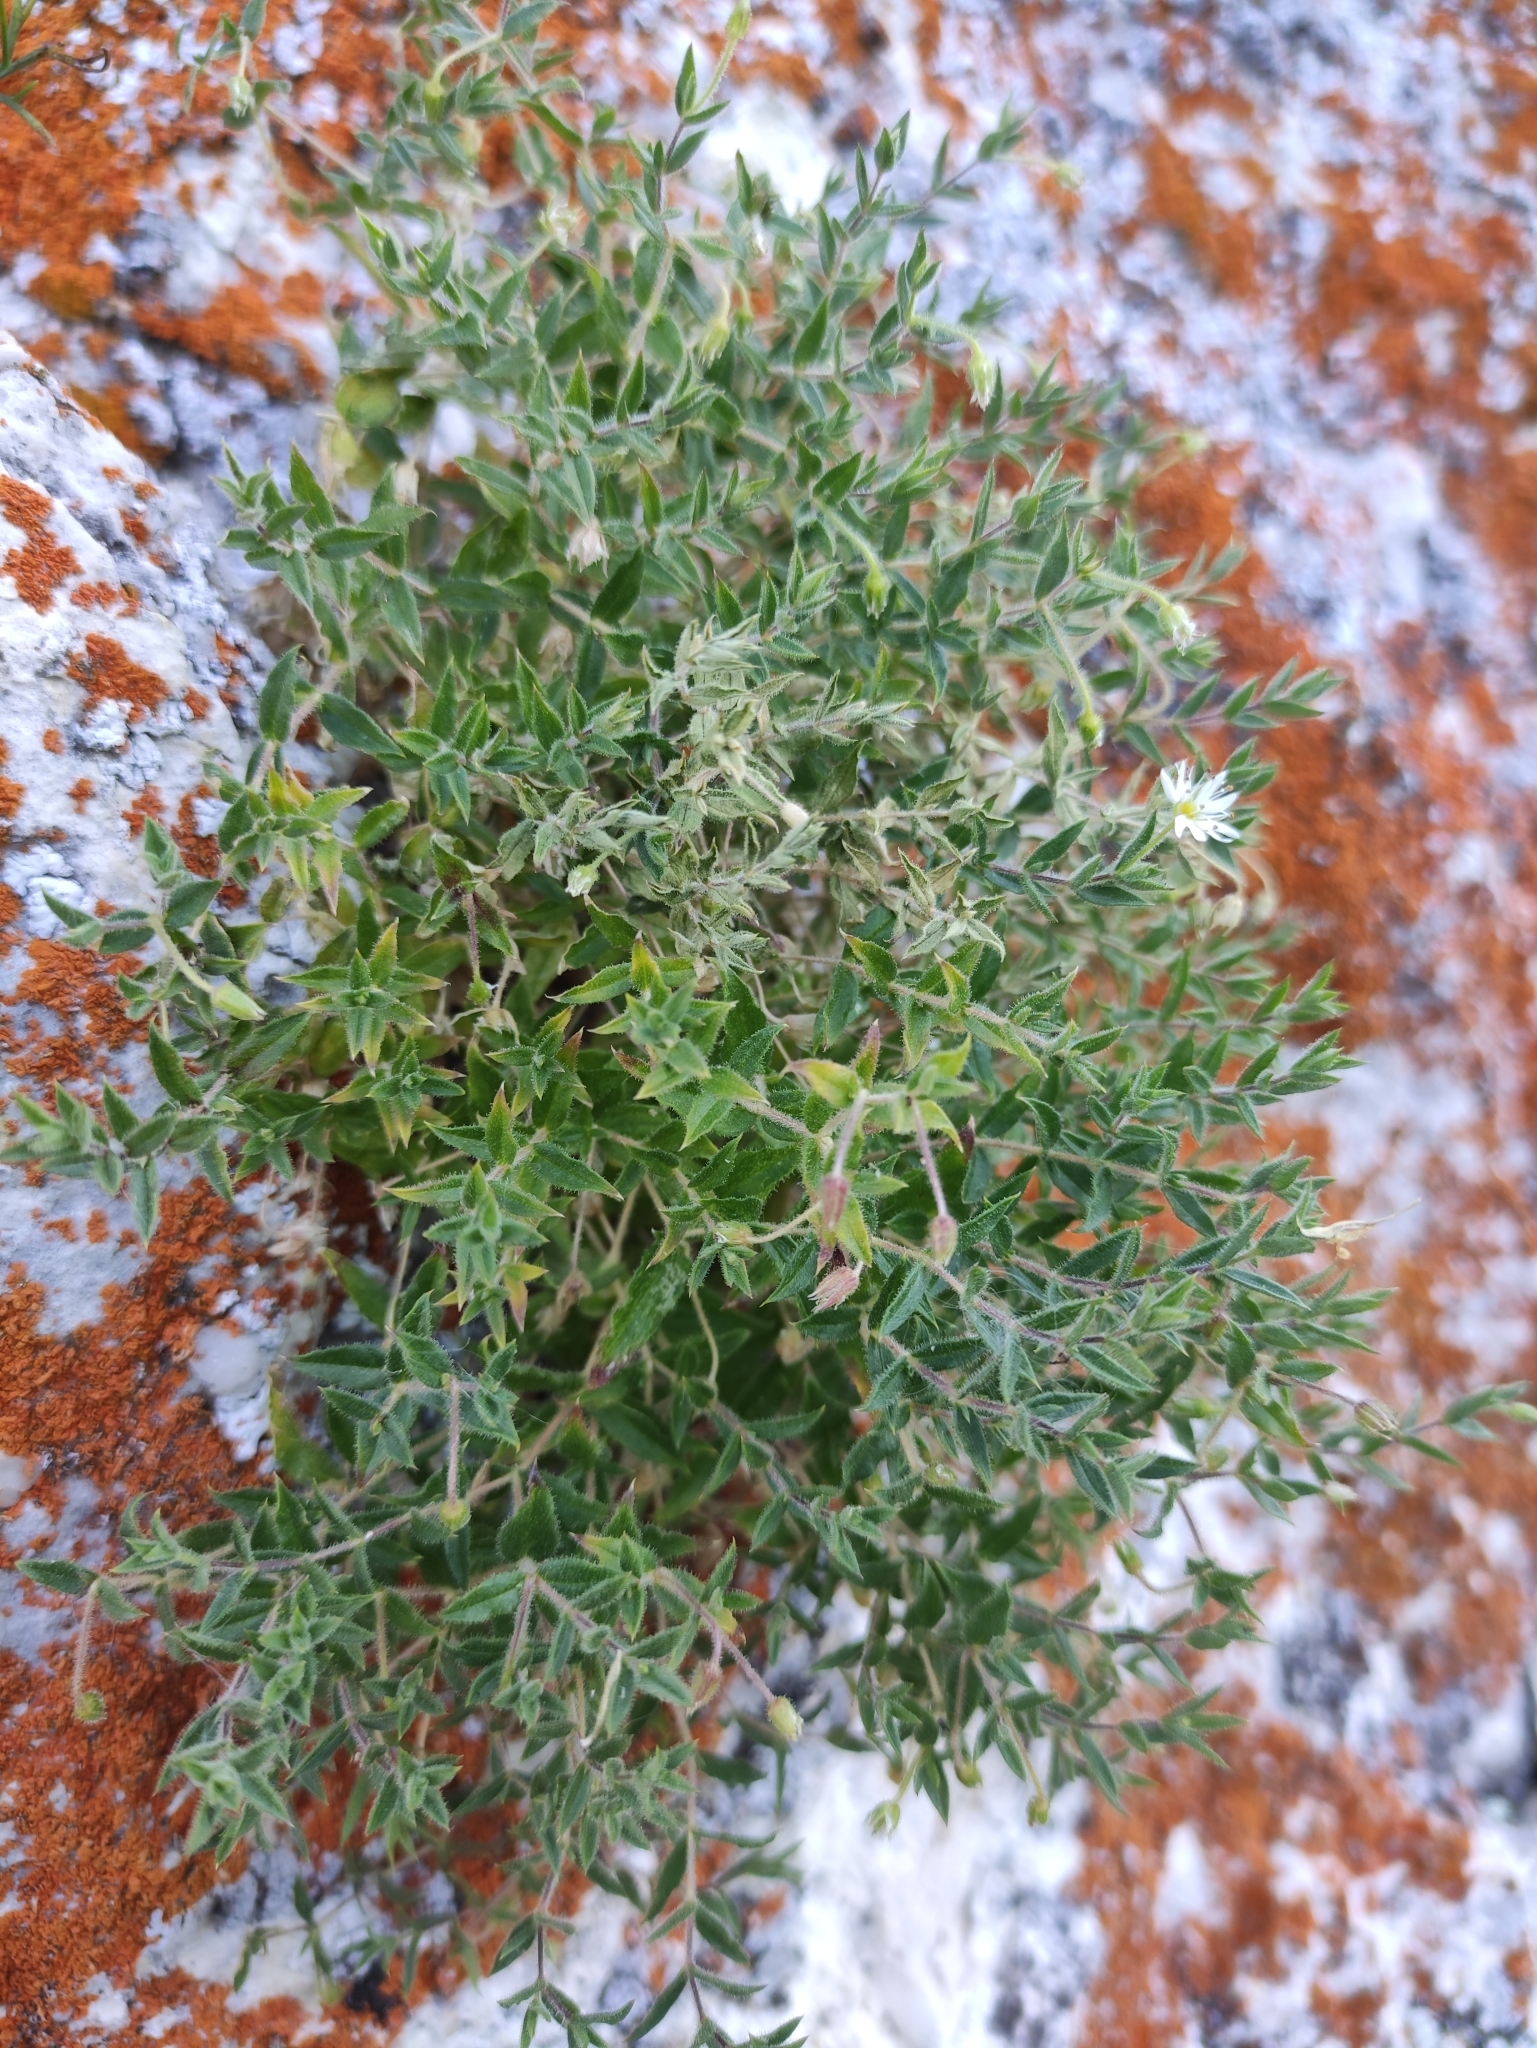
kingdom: Plantae
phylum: Tracheophyta
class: Magnoliopsida
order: Caryophyllales
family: Caryophyllaceae
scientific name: Caryophyllaceae
